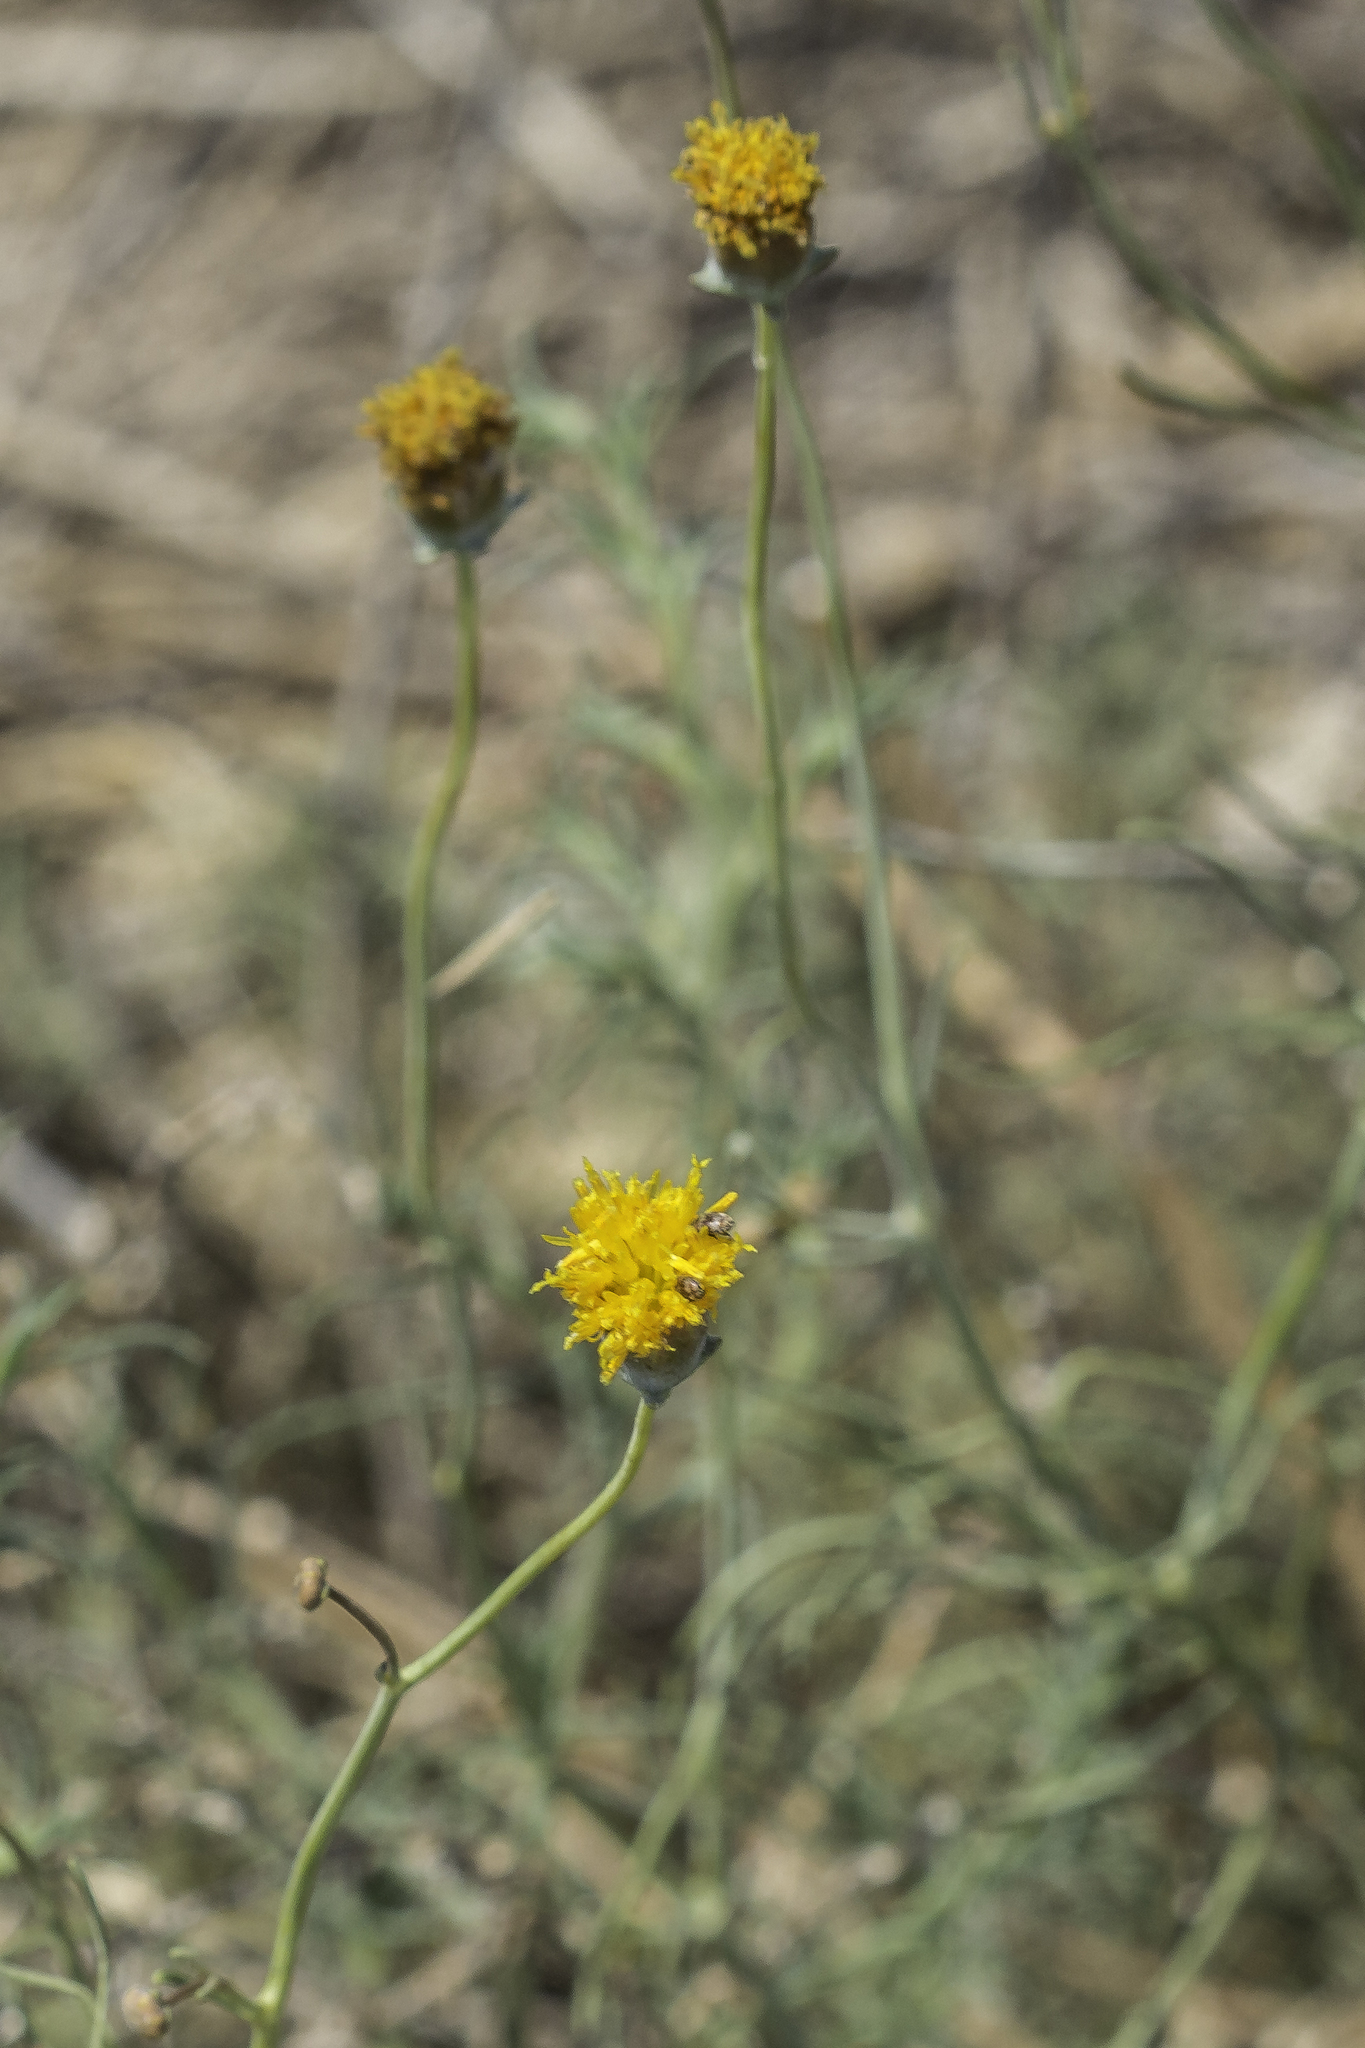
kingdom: Plantae
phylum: Tracheophyta
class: Magnoliopsida
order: Asterales
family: Asteraceae
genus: Thelesperma
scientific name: Thelesperma megapotamicum
